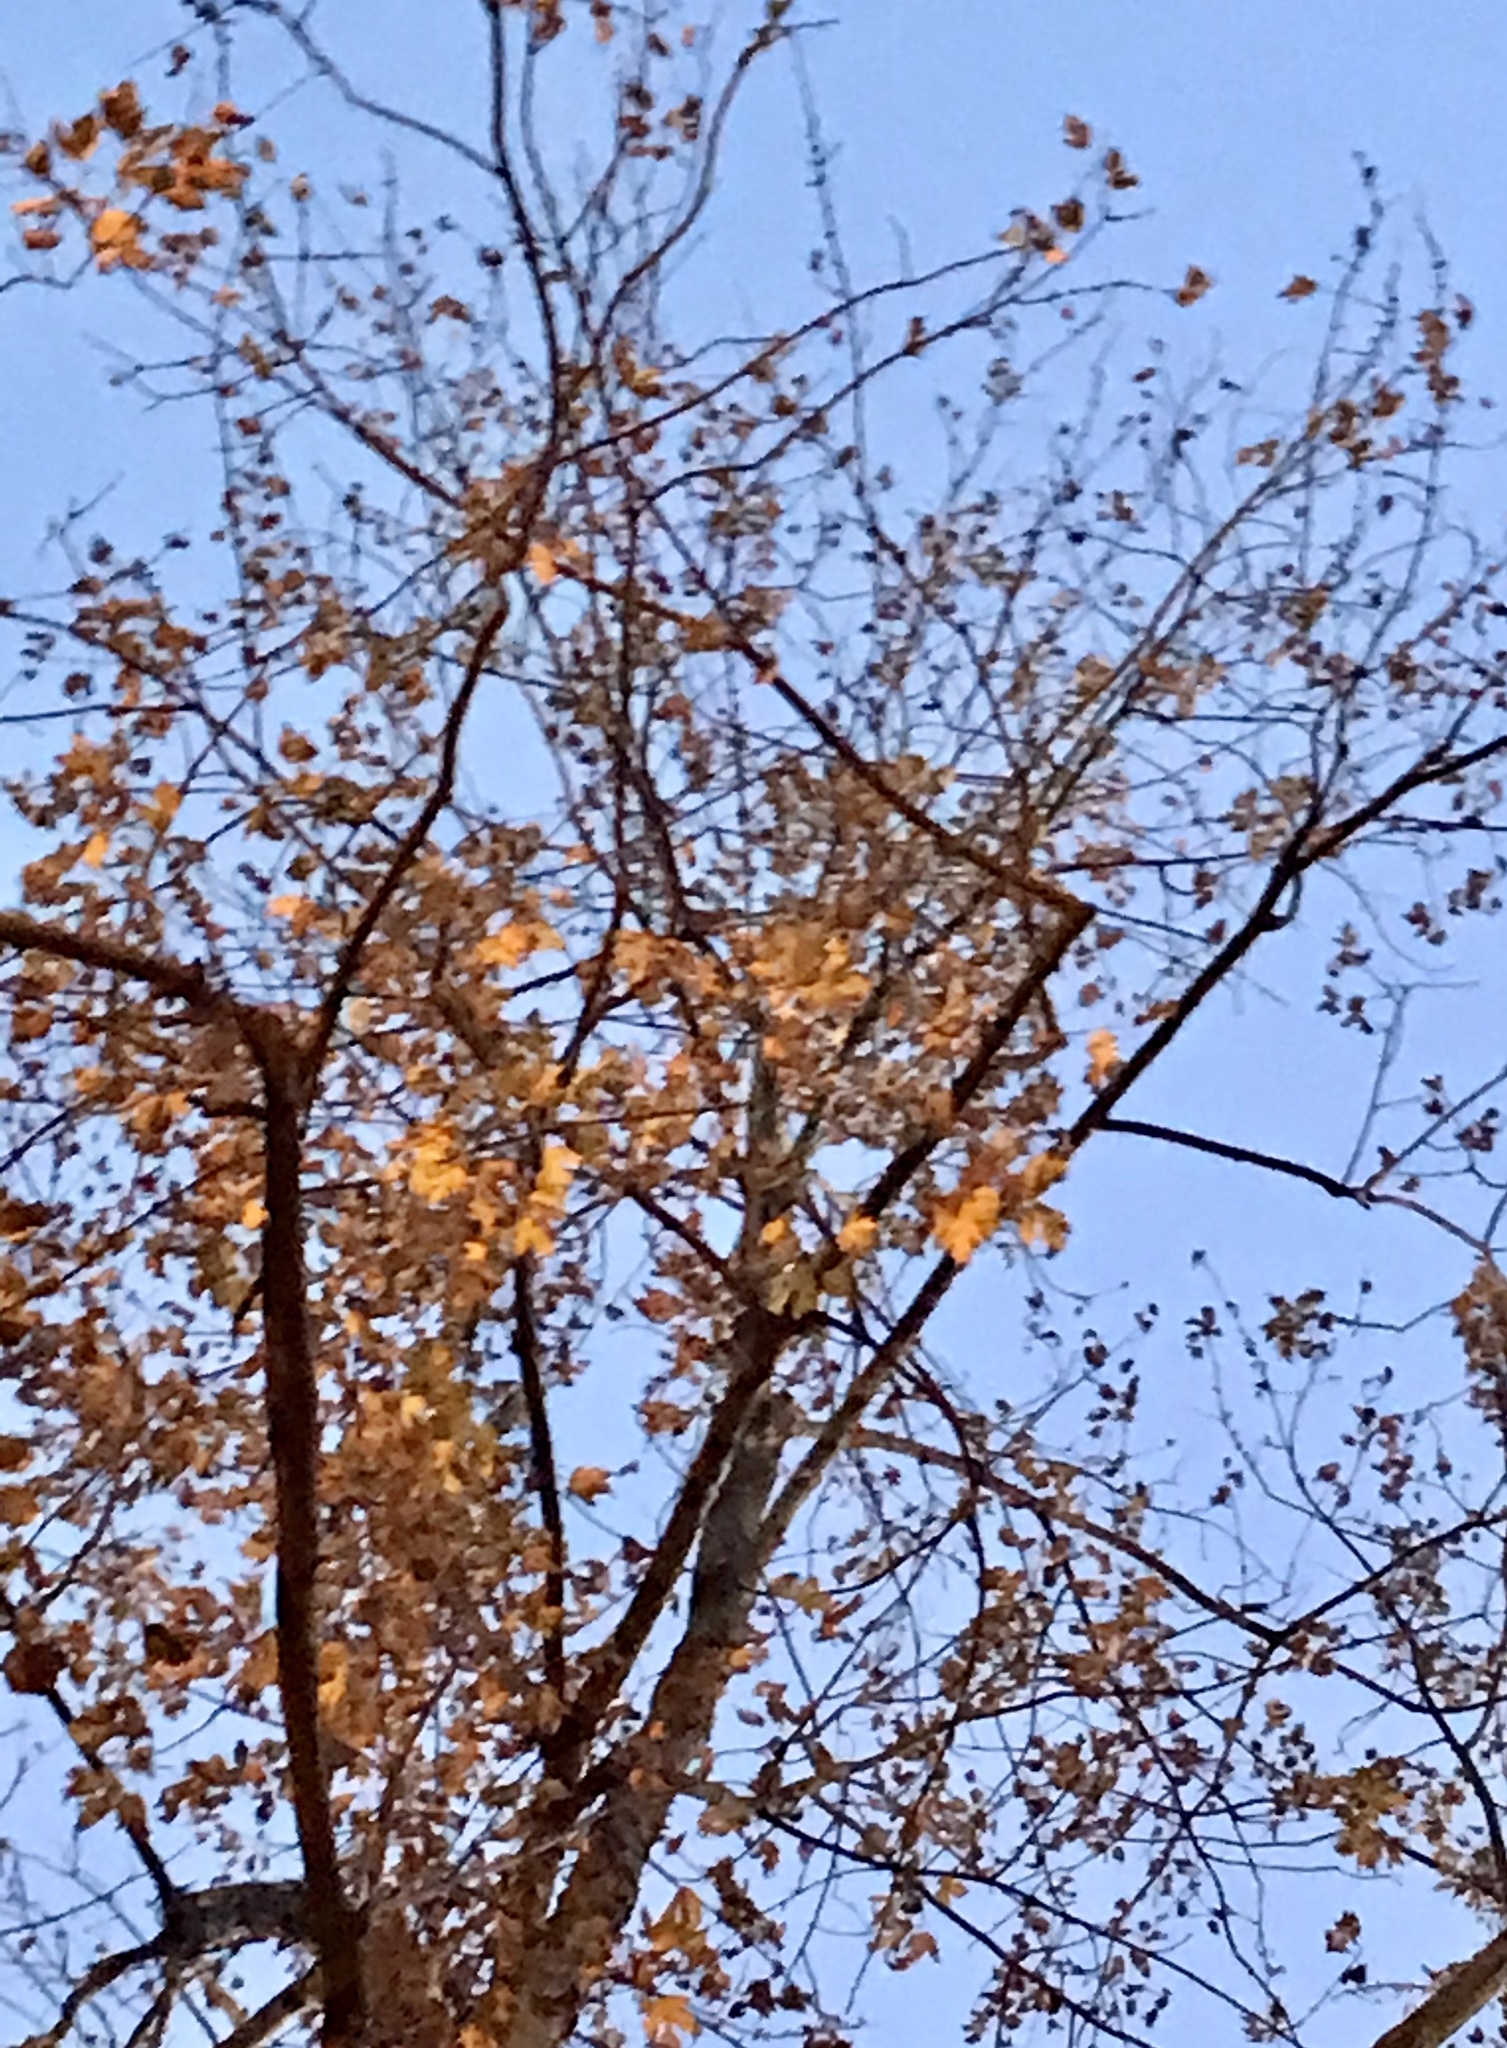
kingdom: Plantae
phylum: Tracheophyta
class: Magnoliopsida
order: Sapindales
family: Sapindaceae
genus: Acer
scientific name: Acer saccharinum
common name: Silver maple
